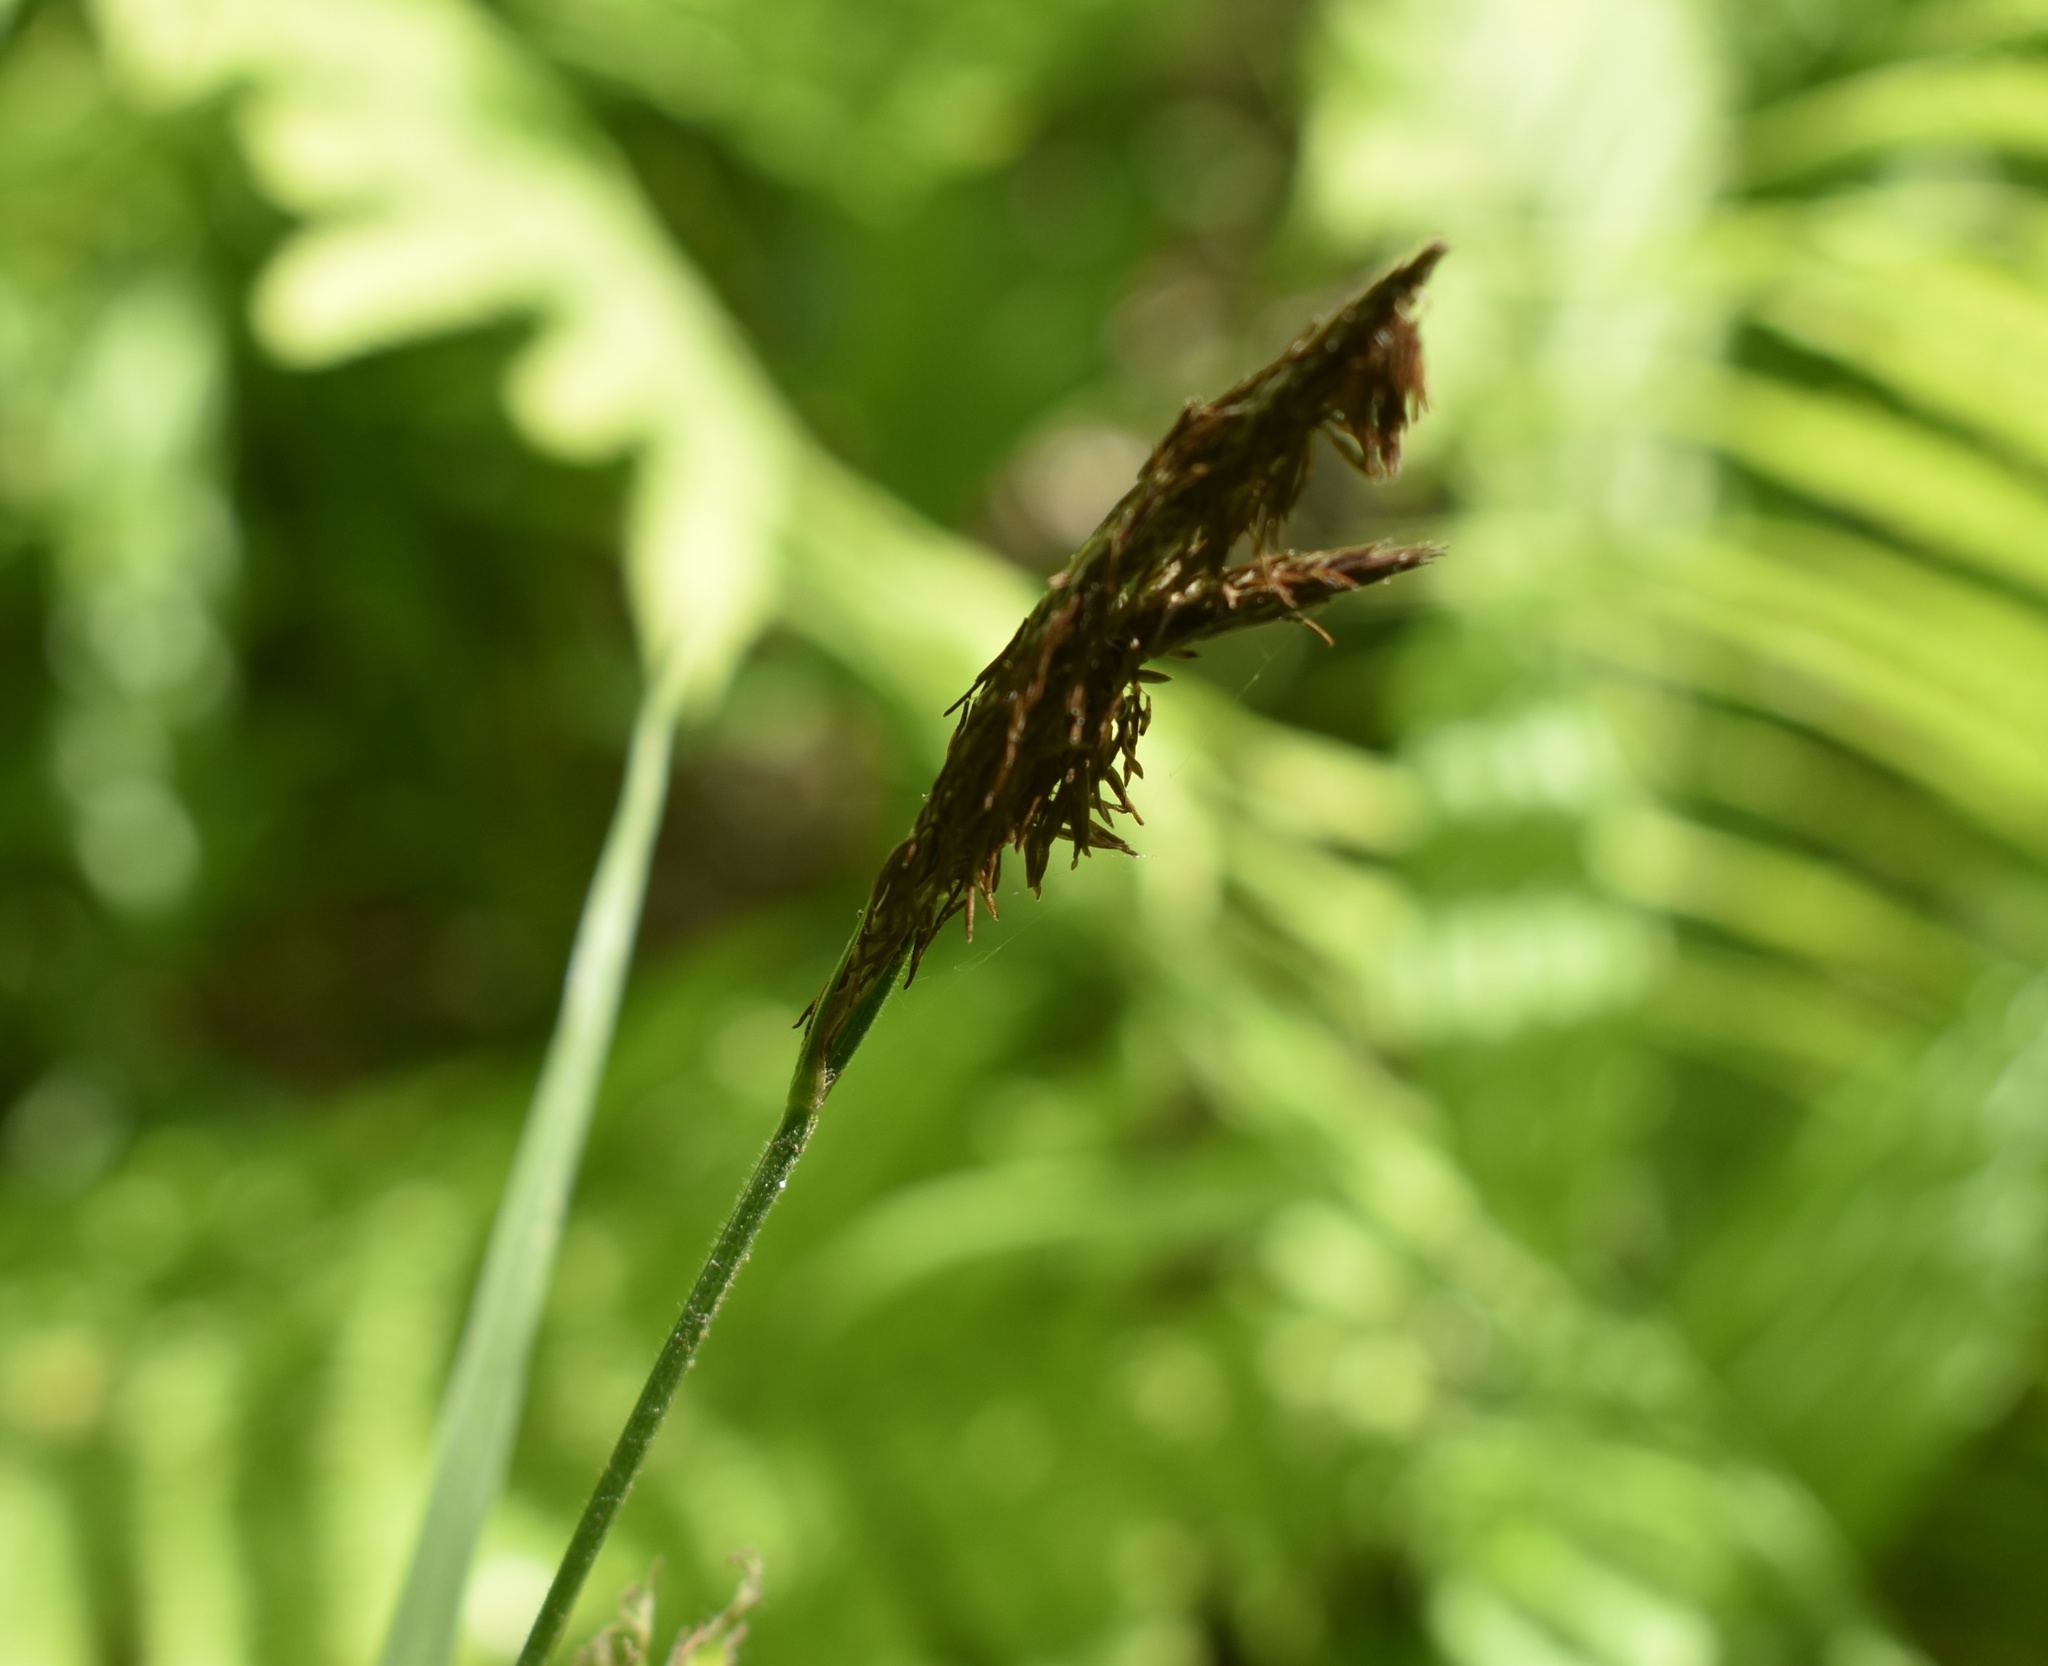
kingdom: Plantae
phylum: Tracheophyta
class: Liliopsida
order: Poales
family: Cyperaceae
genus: Carex
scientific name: Carex drymophila
